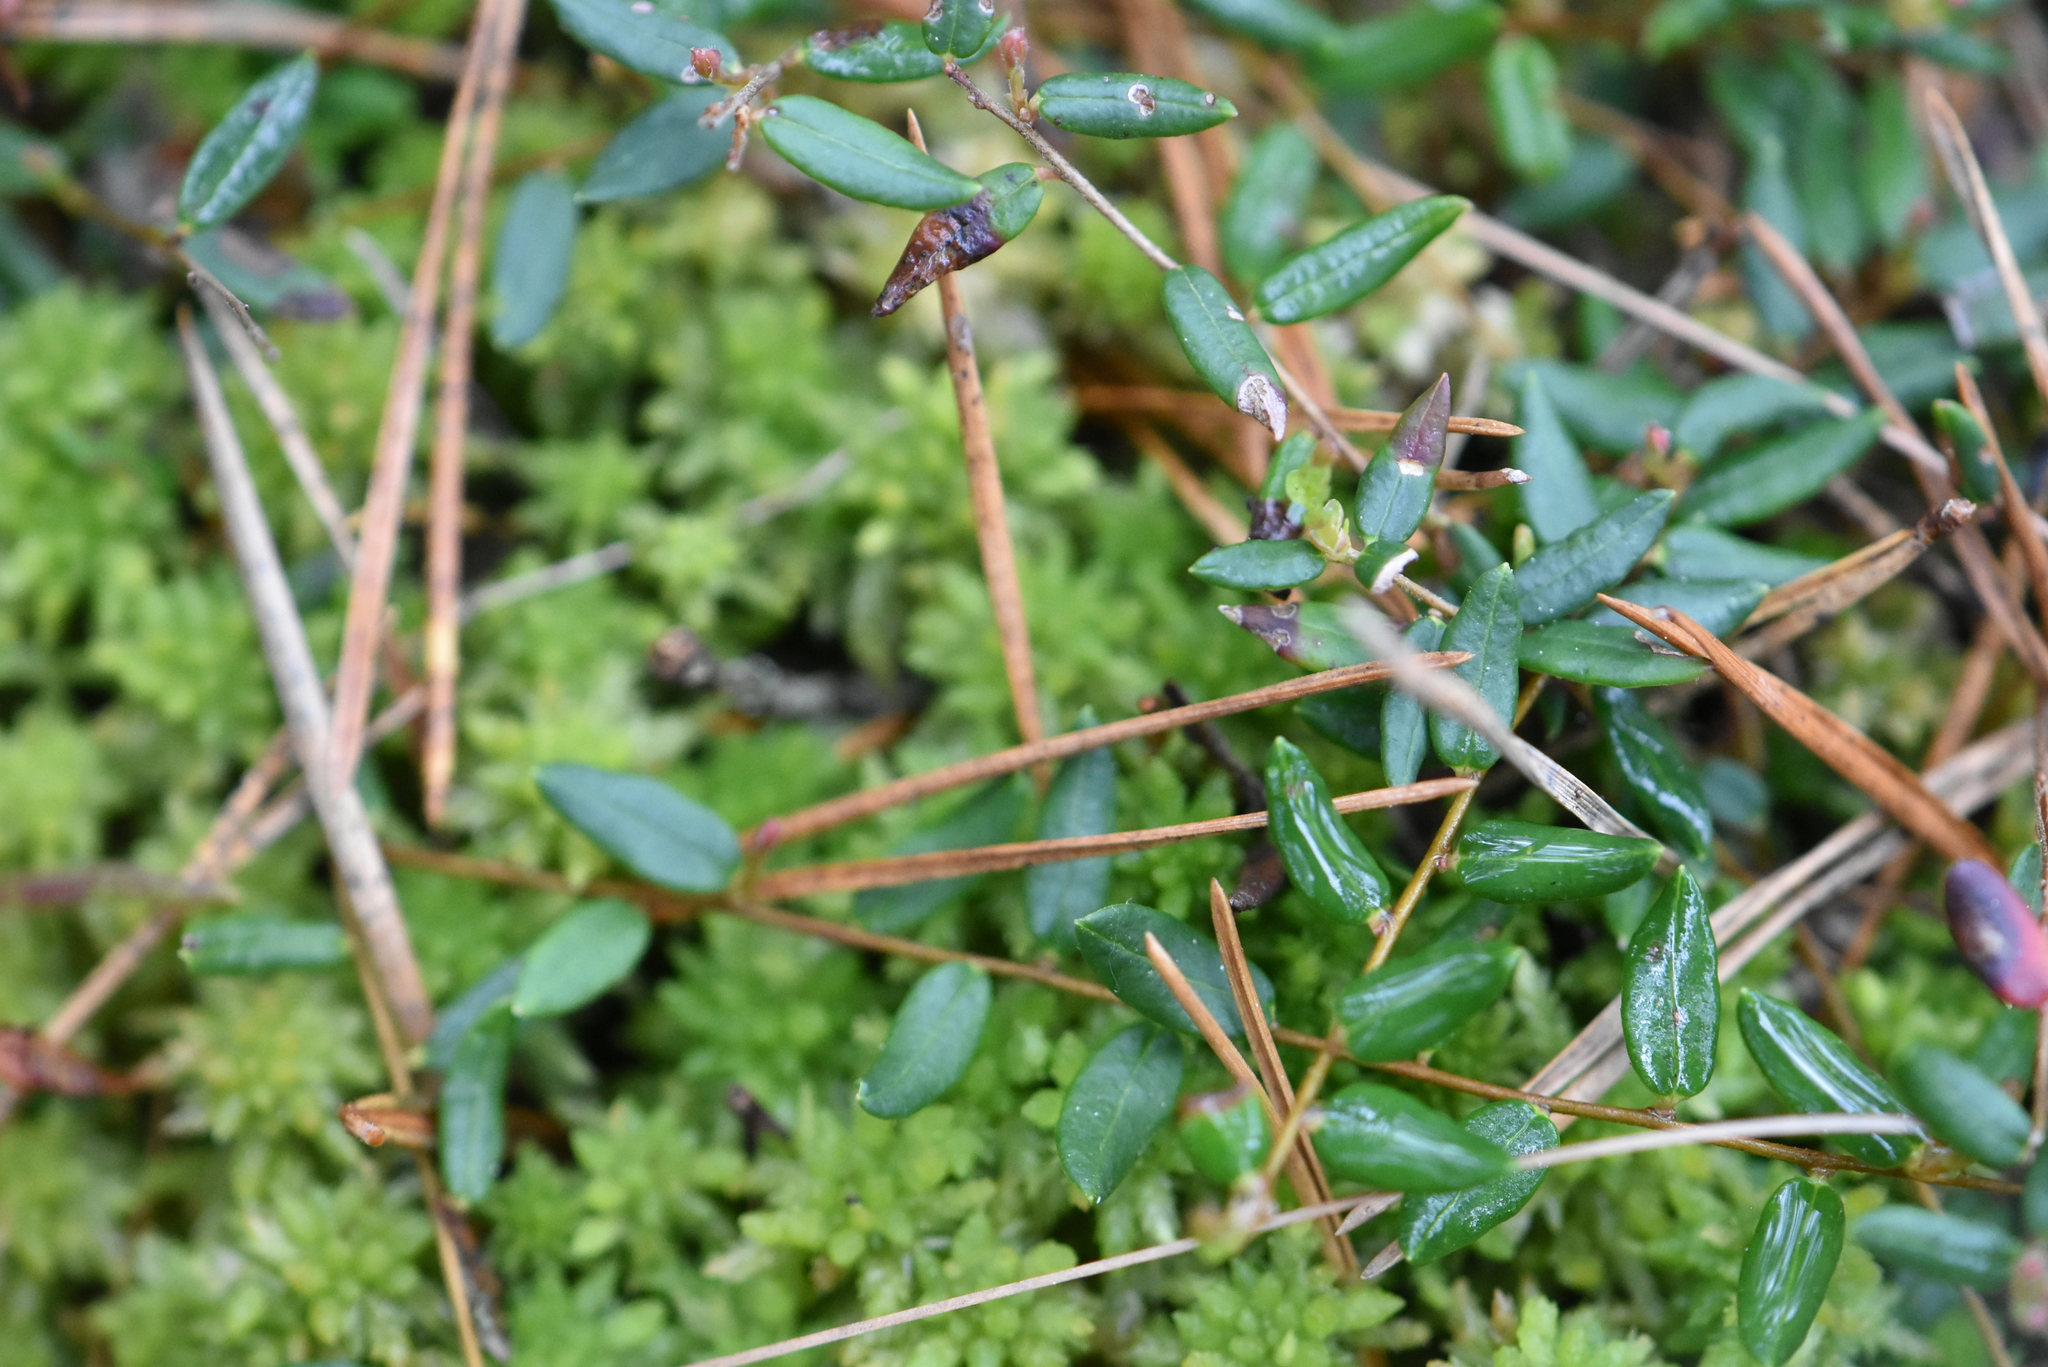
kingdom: Plantae
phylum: Tracheophyta
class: Magnoliopsida
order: Ericales
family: Ericaceae
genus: Vaccinium
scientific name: Vaccinium oxycoccos
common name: Cranberry
